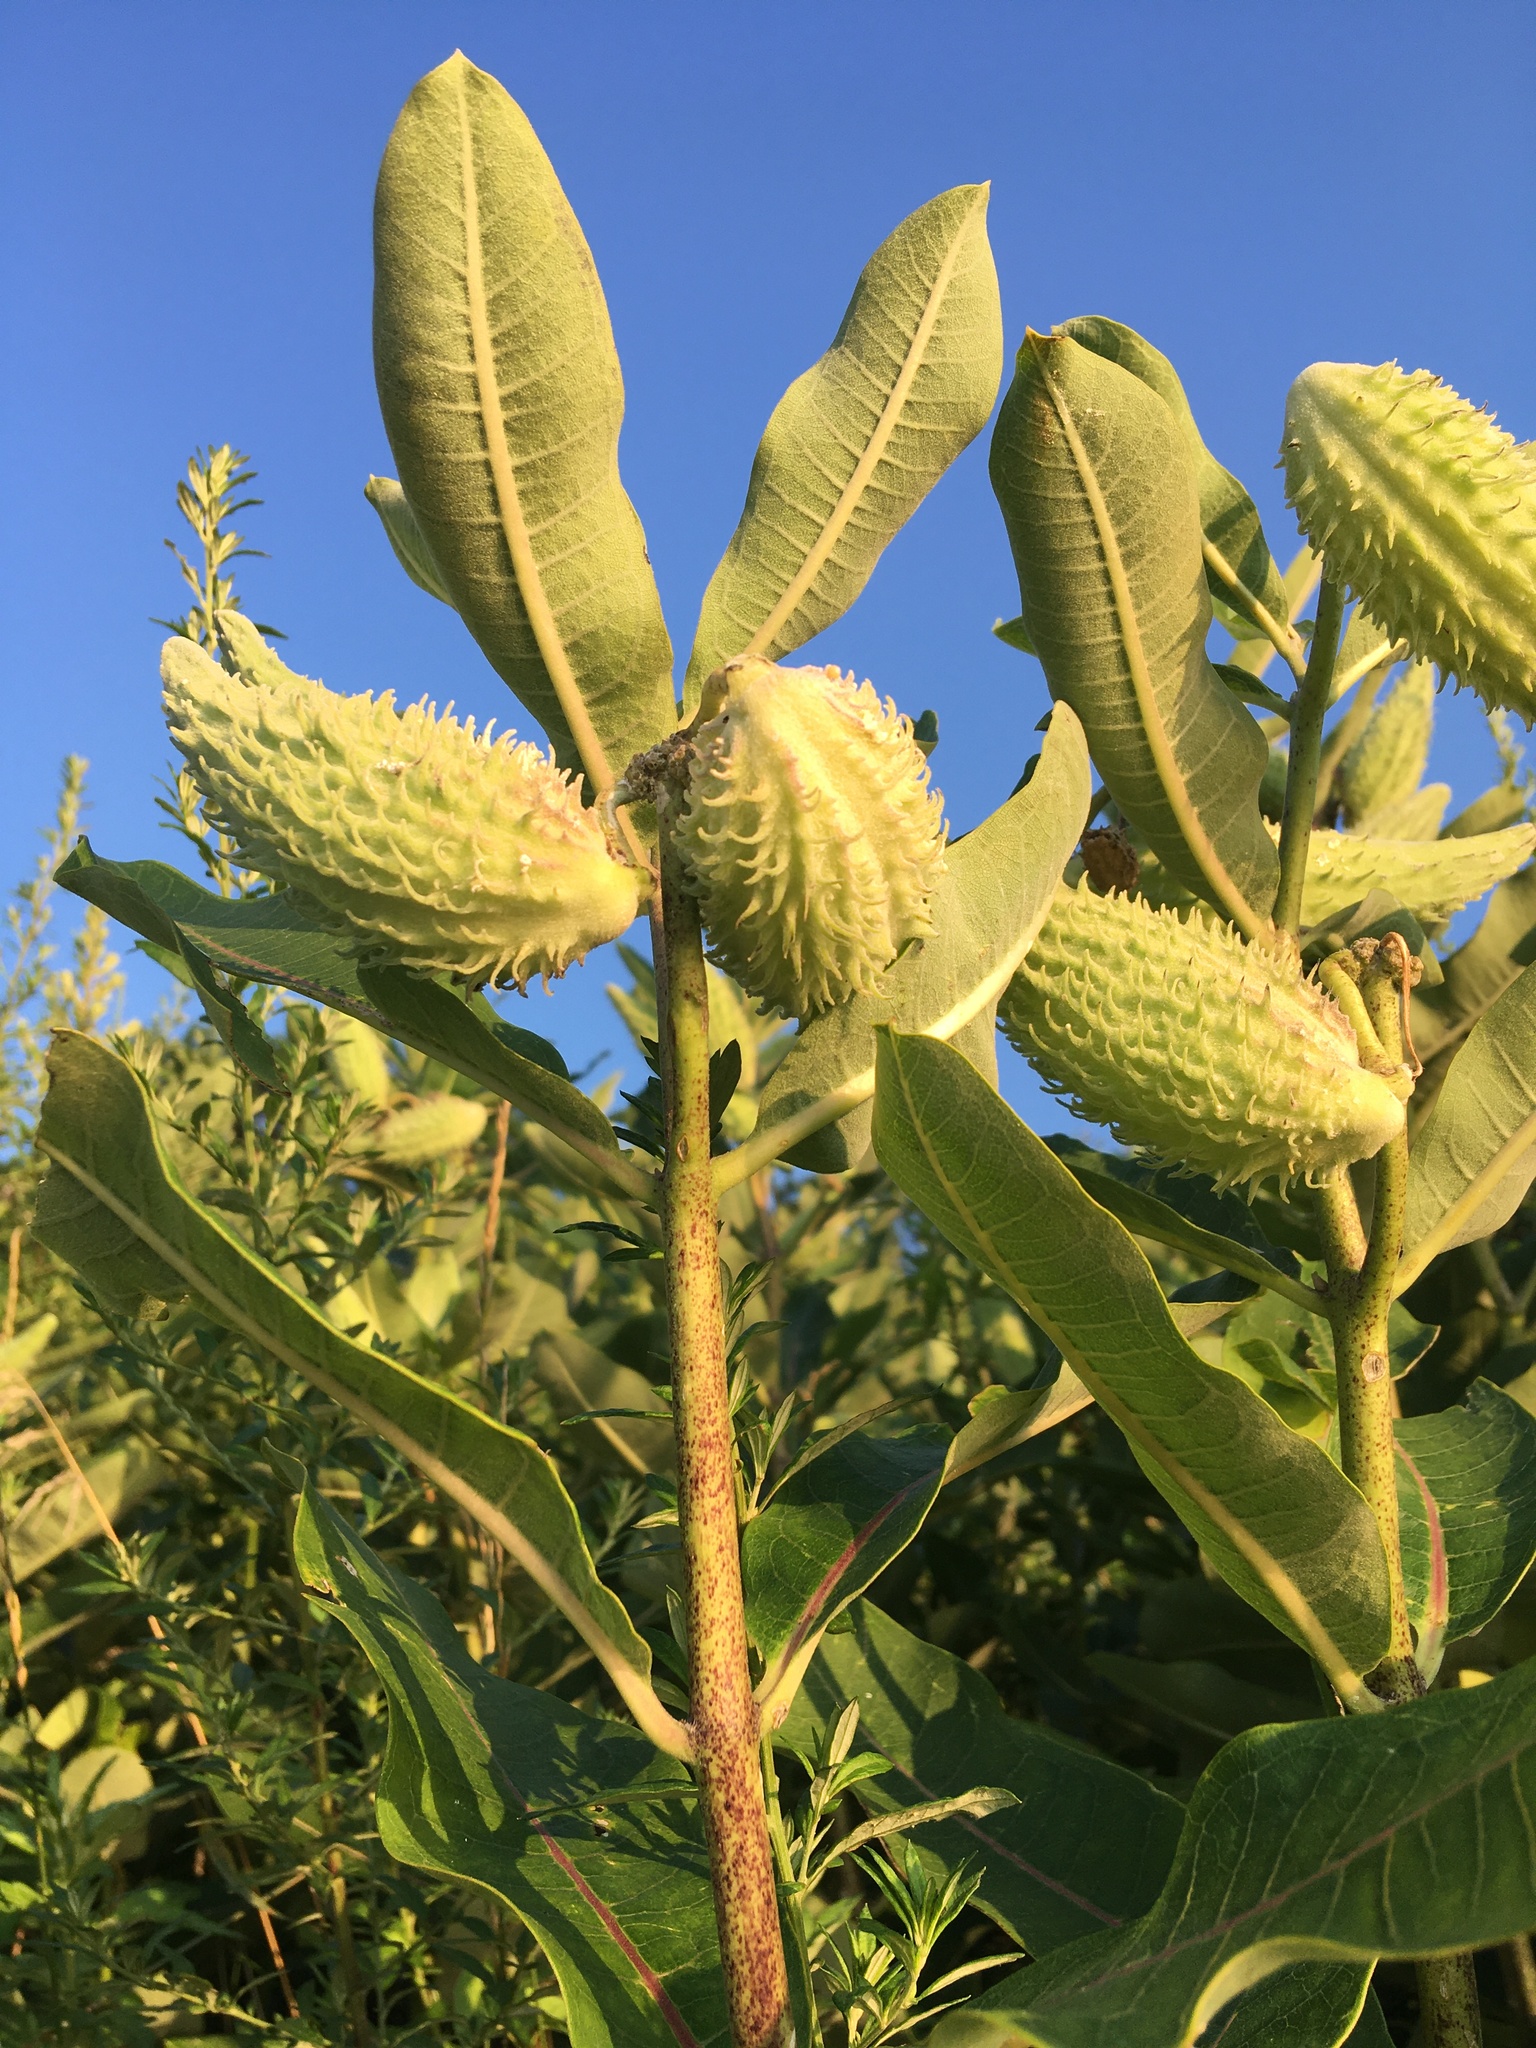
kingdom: Plantae
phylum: Tracheophyta
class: Magnoliopsida
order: Gentianales
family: Apocynaceae
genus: Asclepias
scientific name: Asclepias syriaca
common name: Common milkweed
